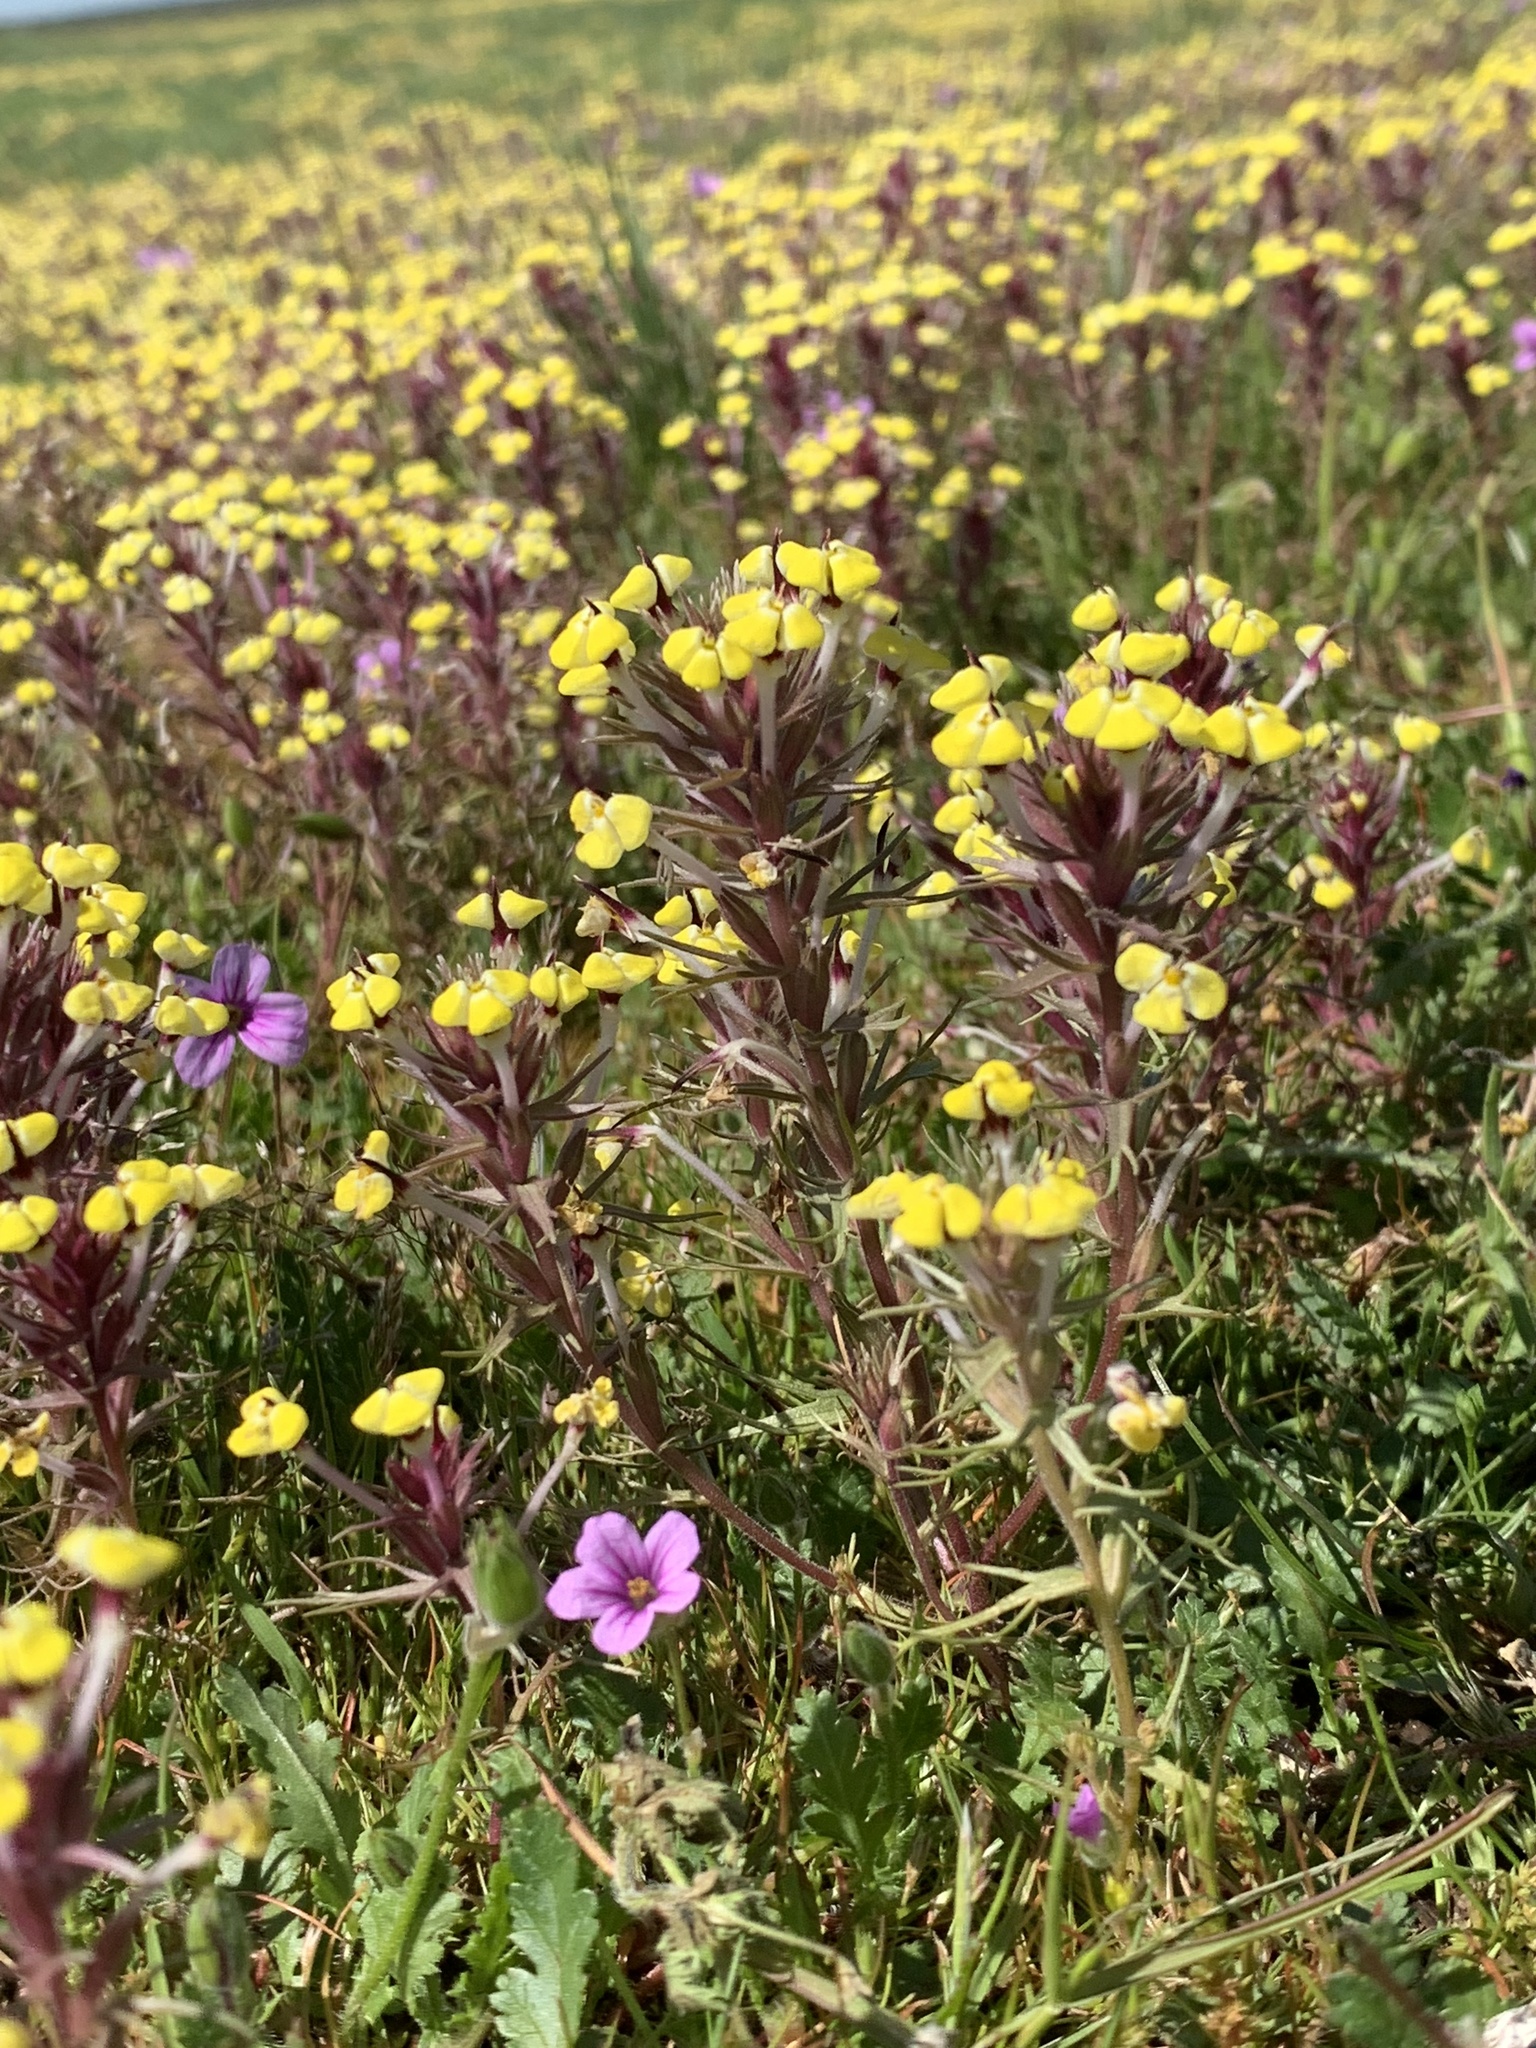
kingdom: Plantae
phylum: Tracheophyta
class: Magnoliopsida
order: Lamiales
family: Orobanchaceae
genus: Triphysaria
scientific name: Triphysaria eriantha
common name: Johnny-tuck
